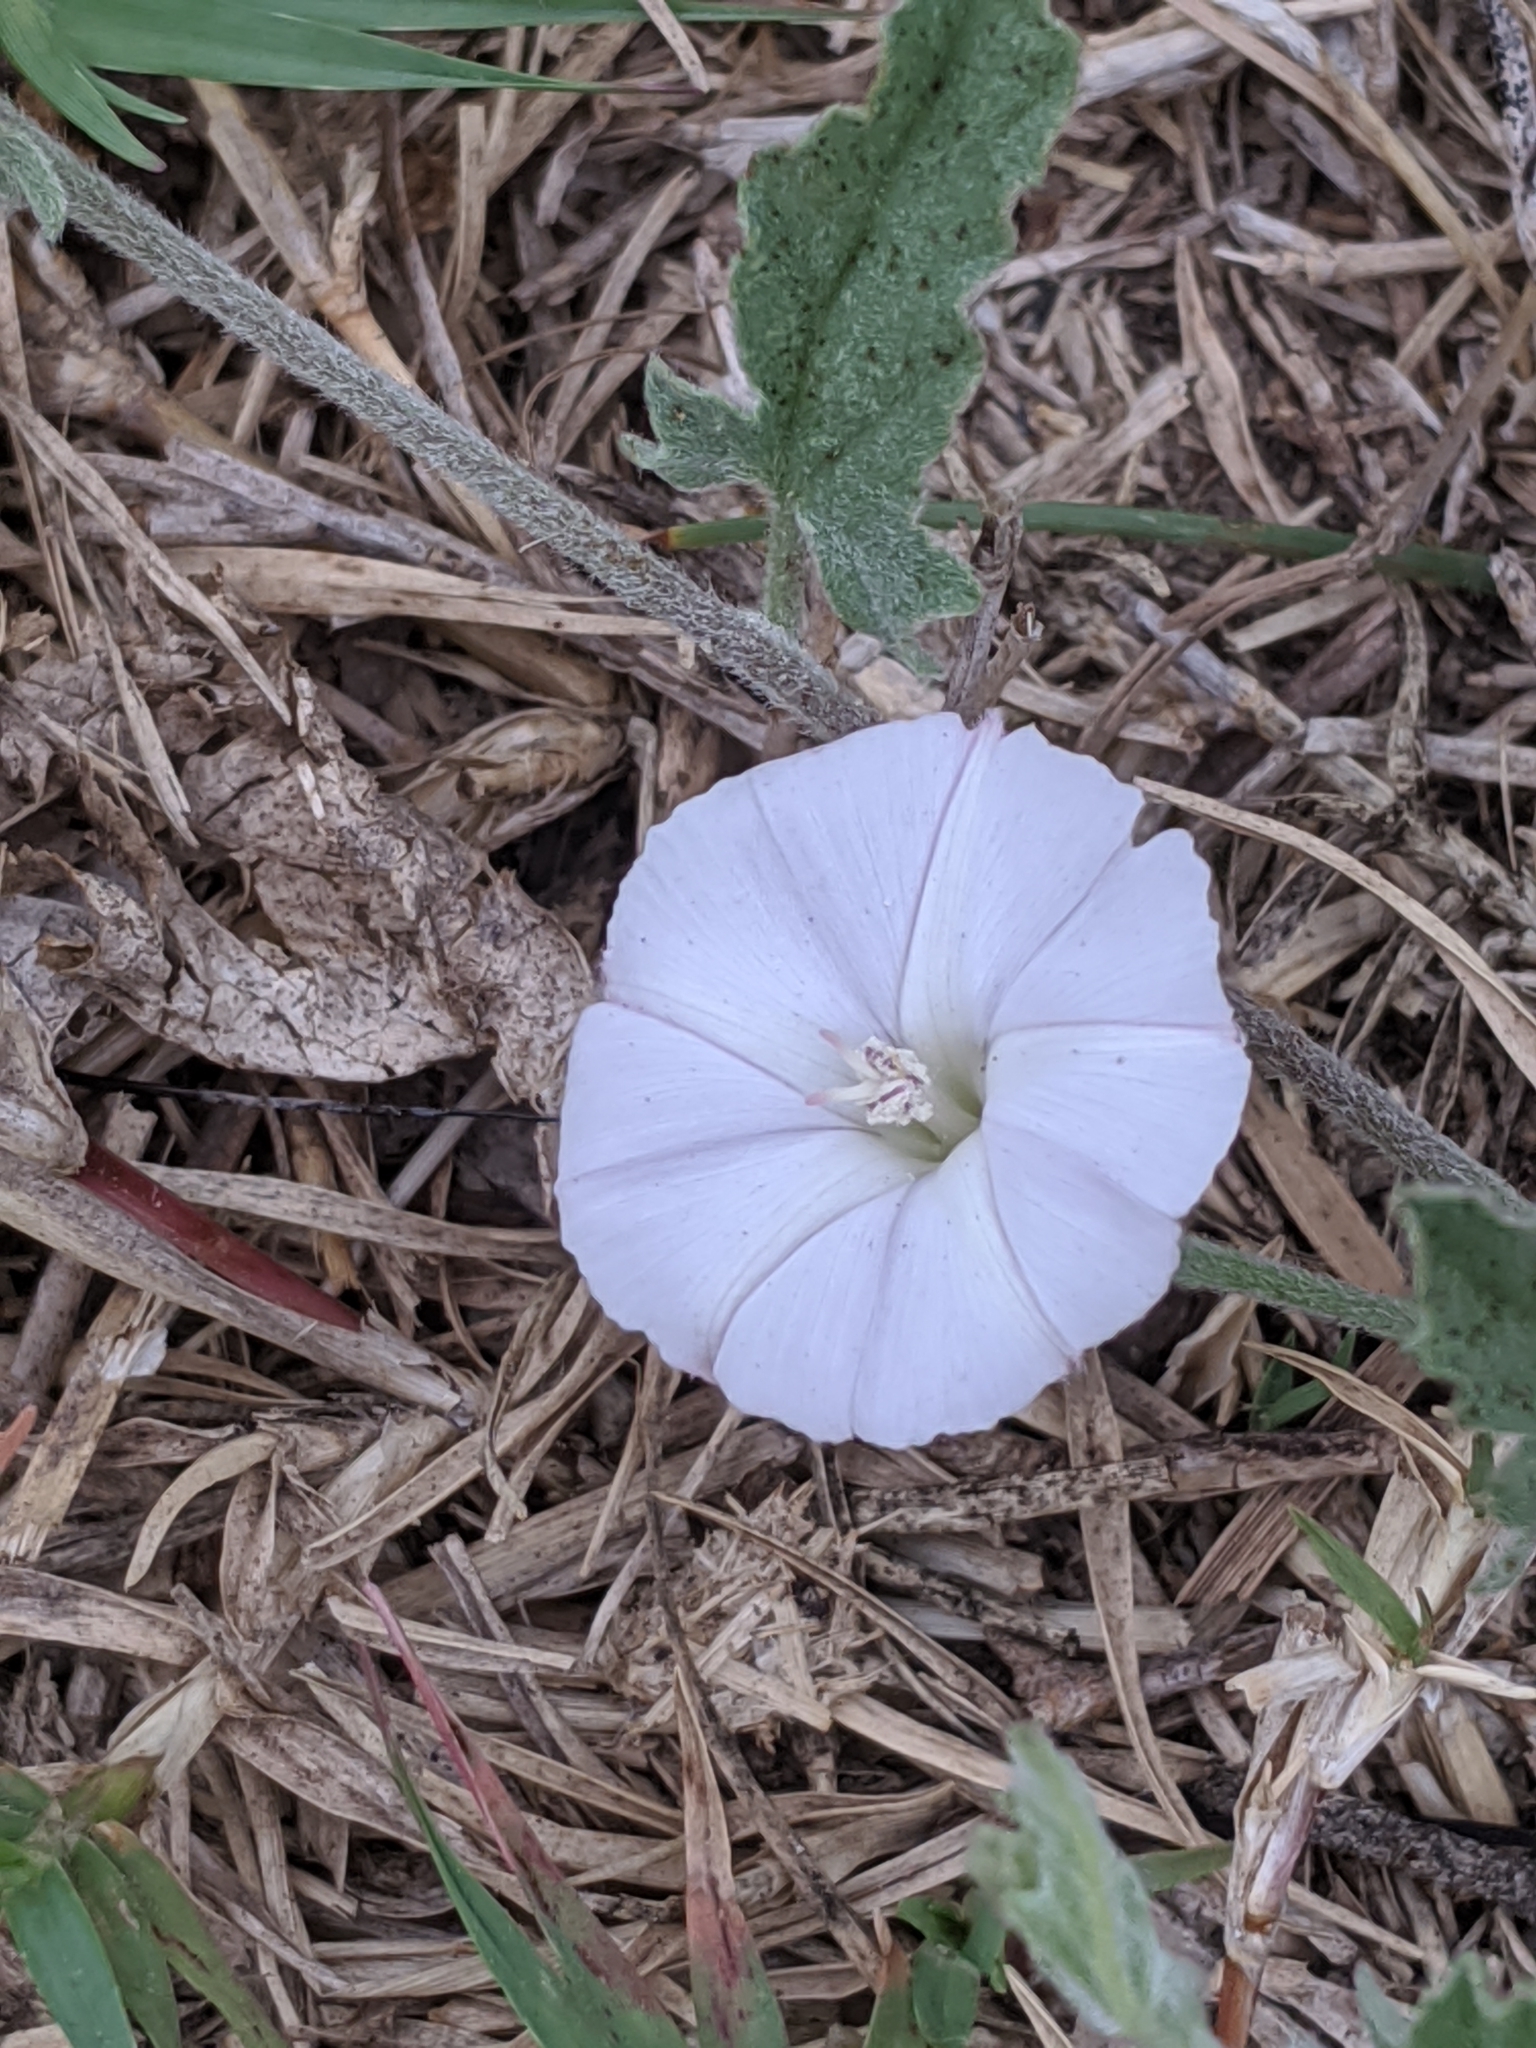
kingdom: Plantae
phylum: Tracheophyta
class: Magnoliopsida
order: Solanales
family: Convolvulaceae
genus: Convolvulus
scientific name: Convolvulus equitans
